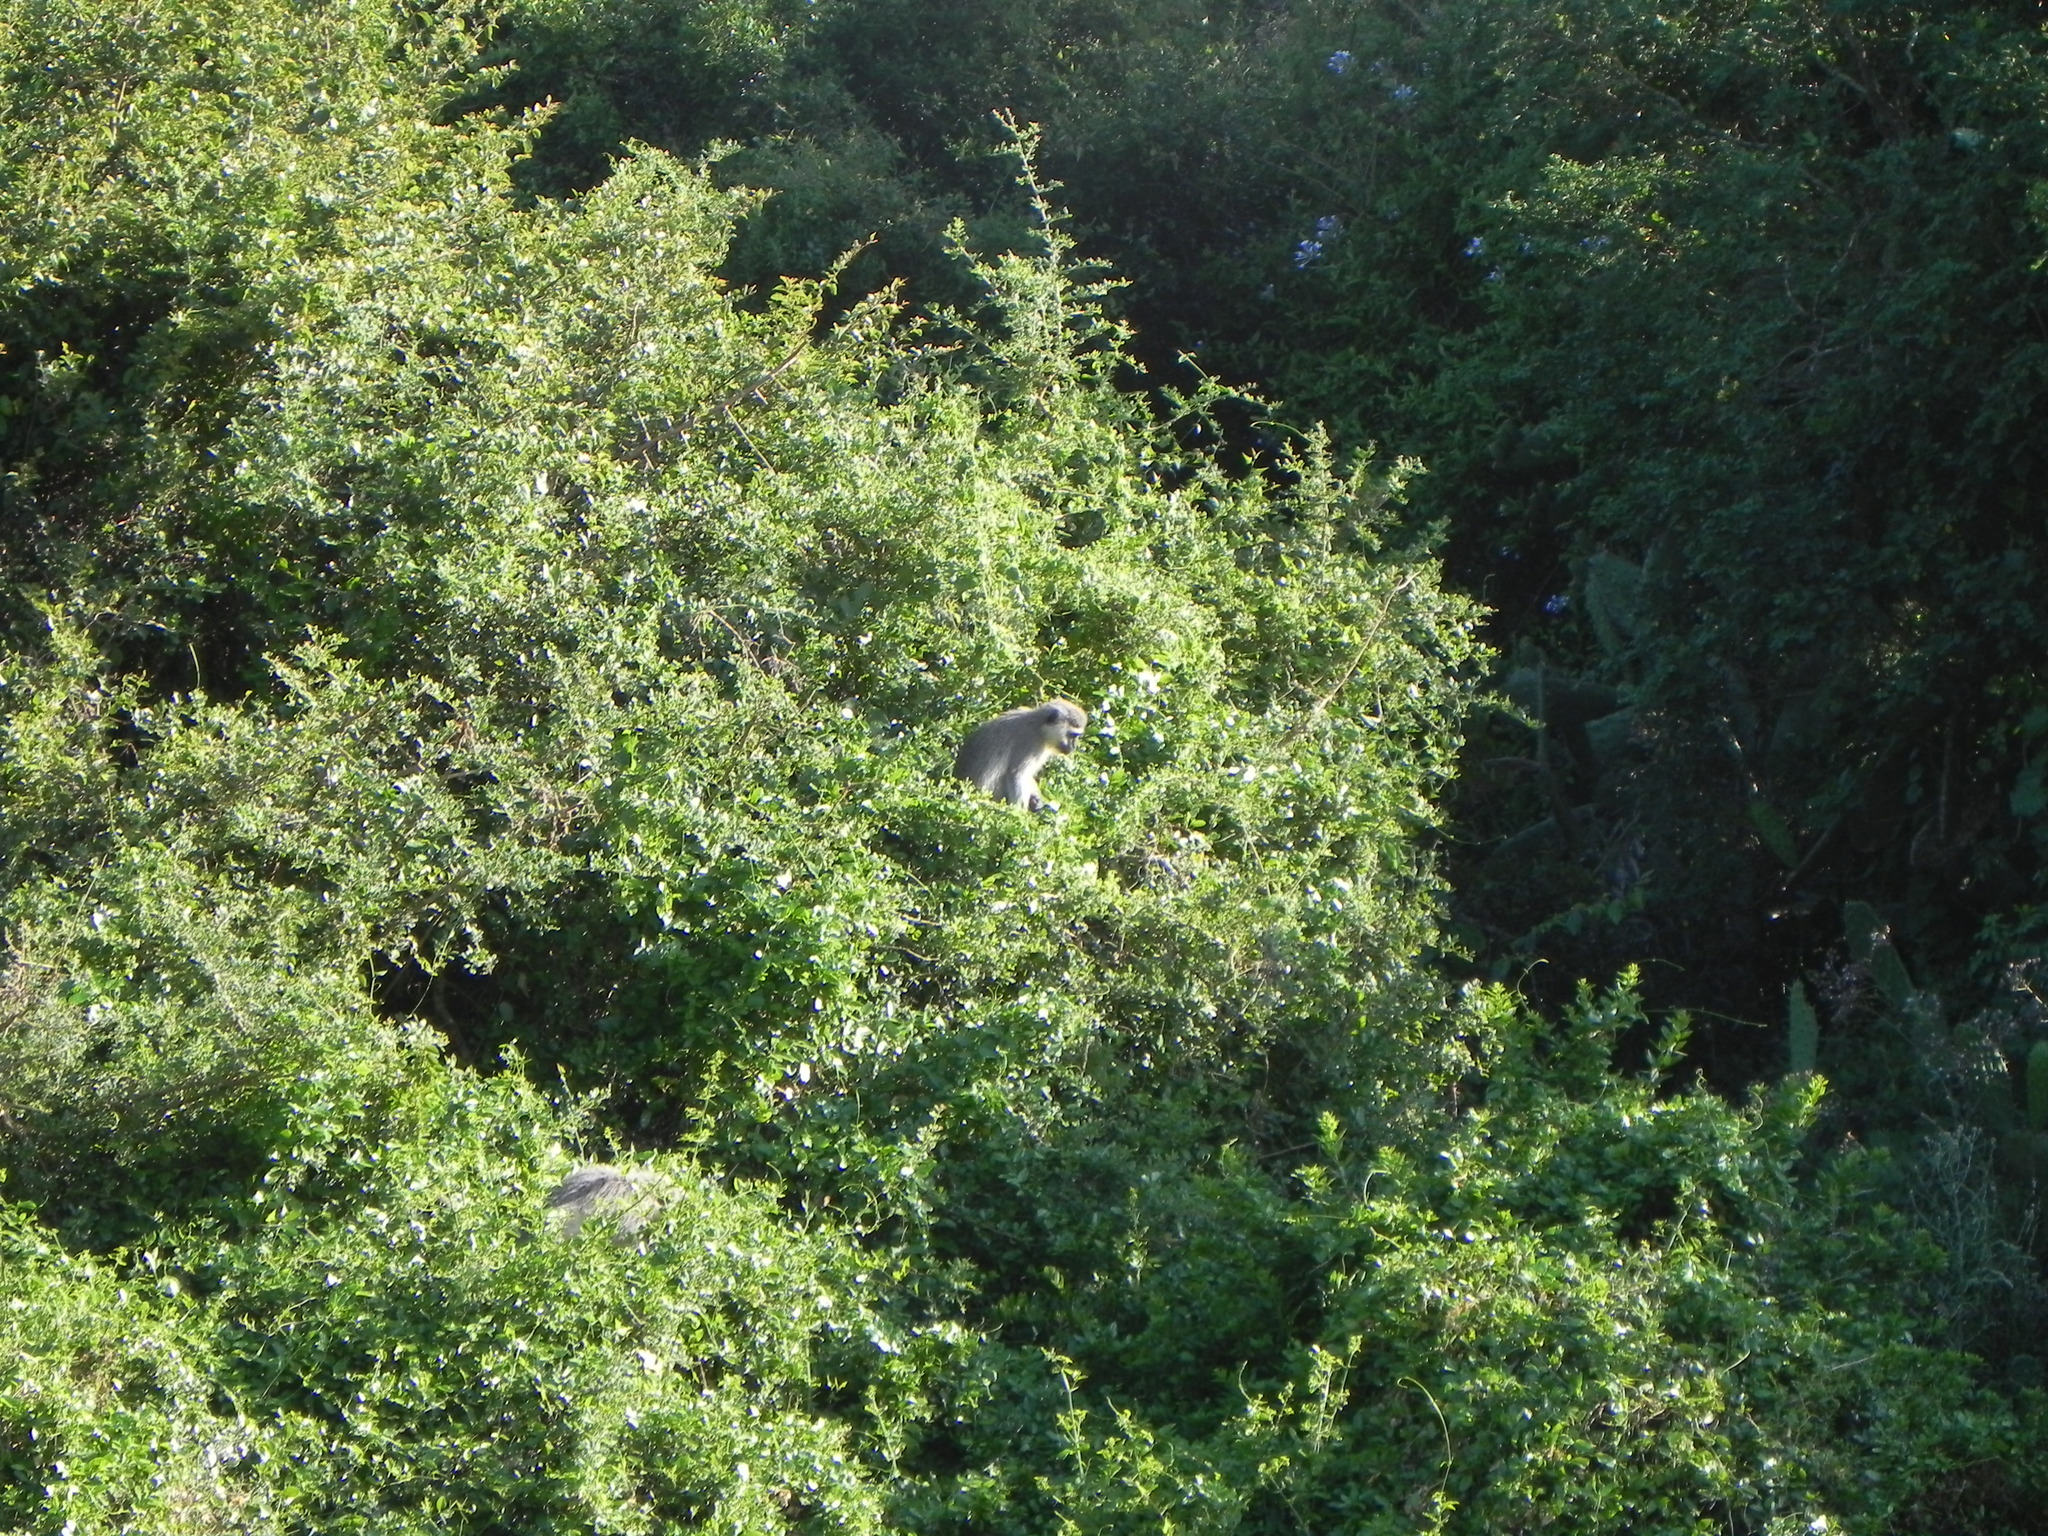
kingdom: Animalia
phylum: Chordata
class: Mammalia
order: Primates
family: Cercopithecidae
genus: Chlorocebus
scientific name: Chlorocebus pygerythrus
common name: Vervet monkey
